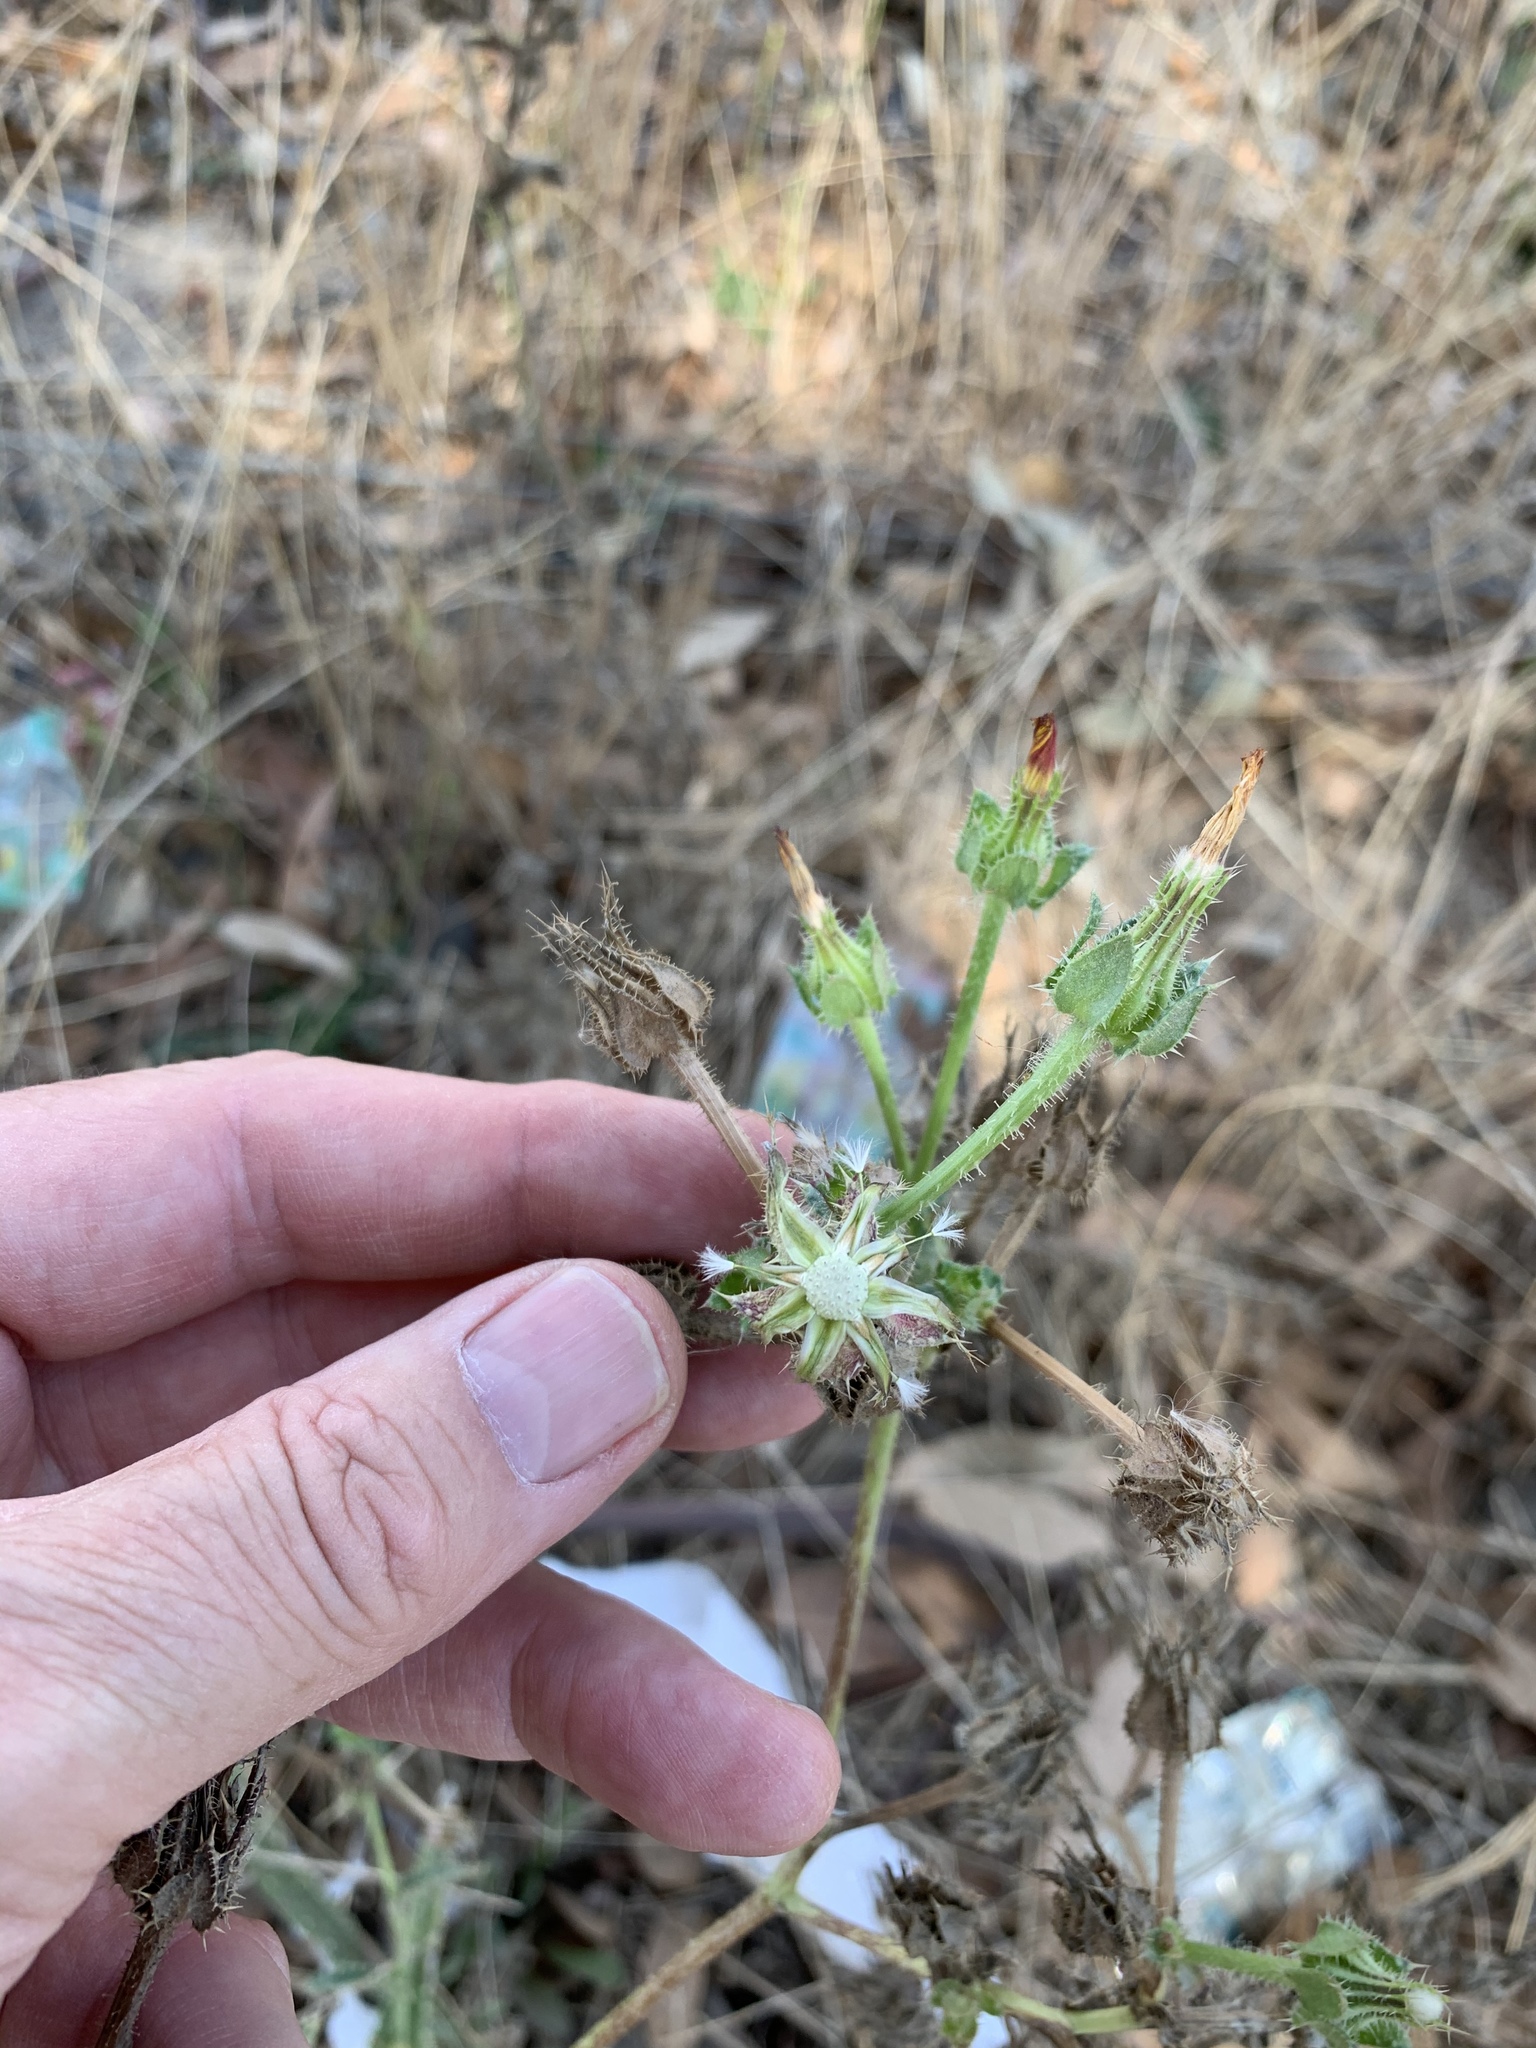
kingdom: Plantae
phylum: Tracheophyta
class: Magnoliopsida
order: Asterales
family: Asteraceae
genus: Helminthotheca
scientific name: Helminthotheca echioides
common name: Ox-tongue
